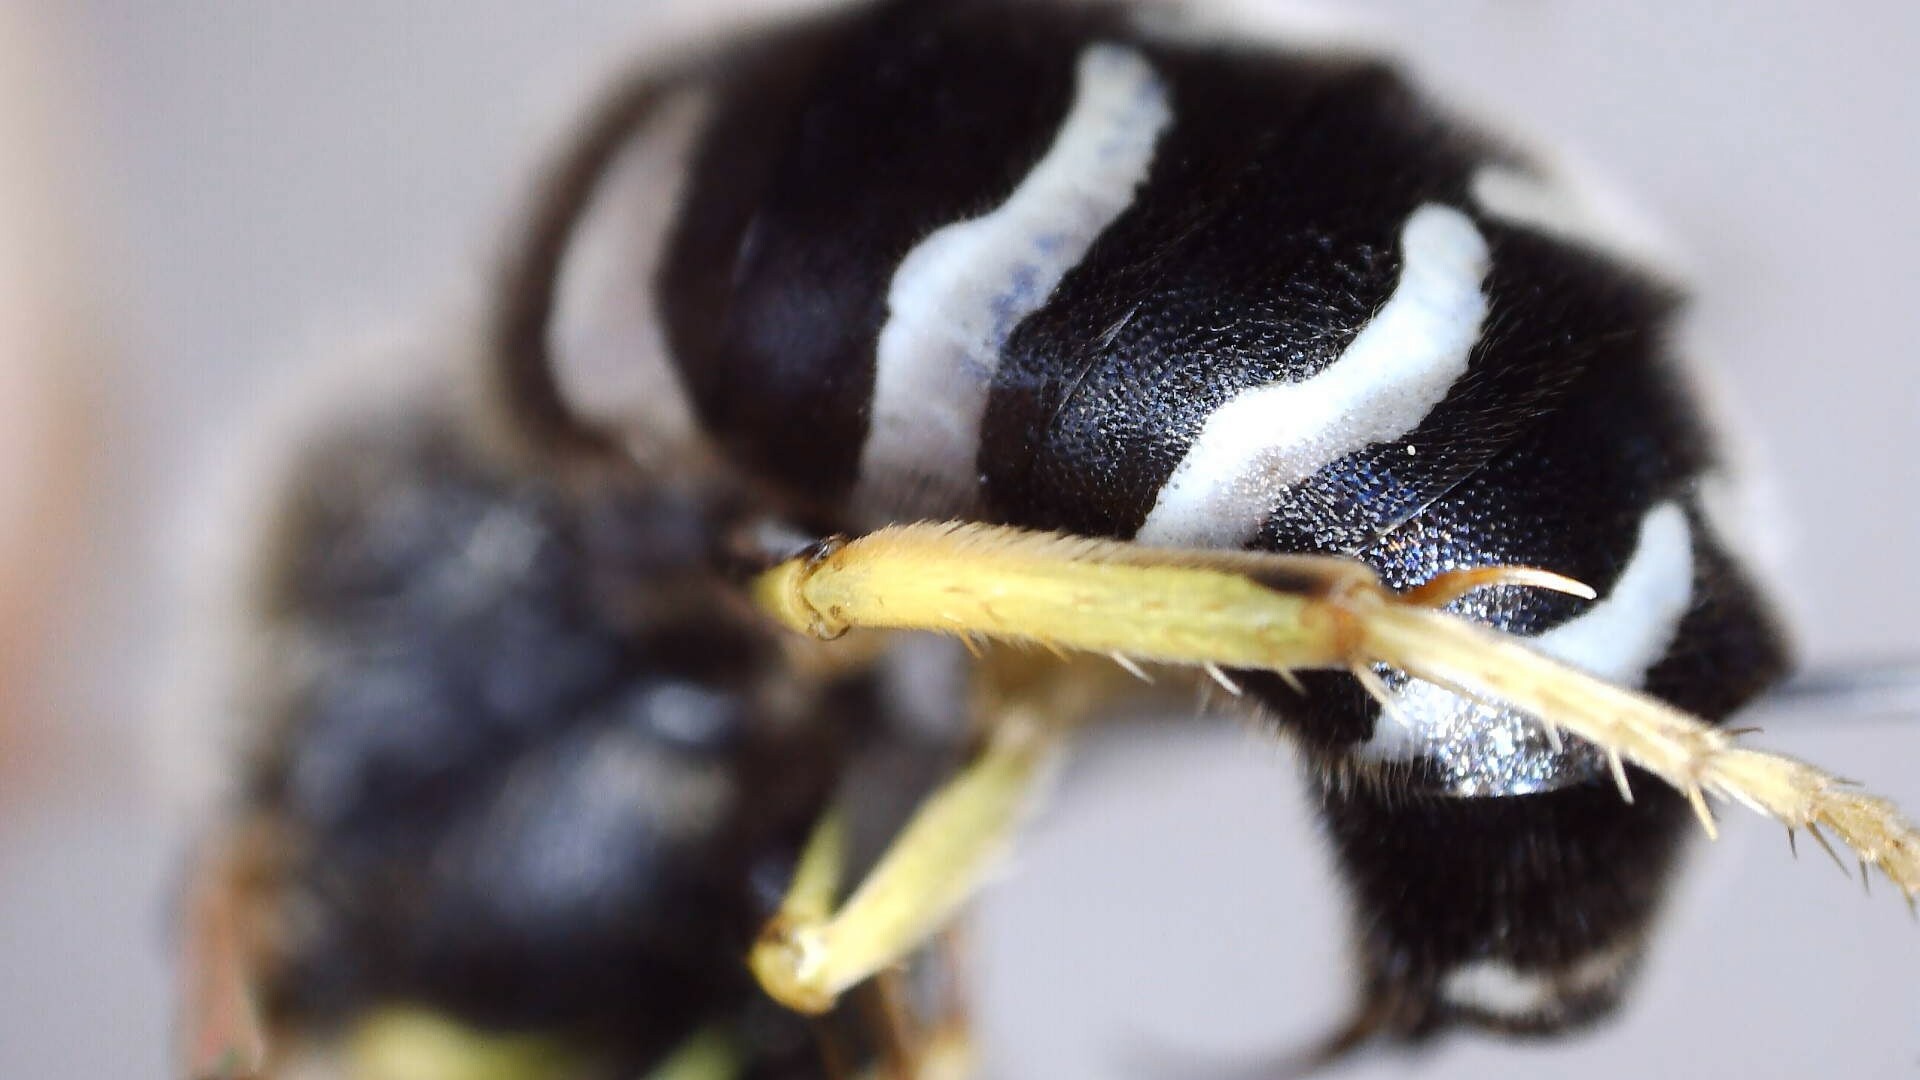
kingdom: Animalia
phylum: Arthropoda
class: Insecta
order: Hymenoptera
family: Crabronidae
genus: Bembix
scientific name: Bembix americana
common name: American sand wasp
